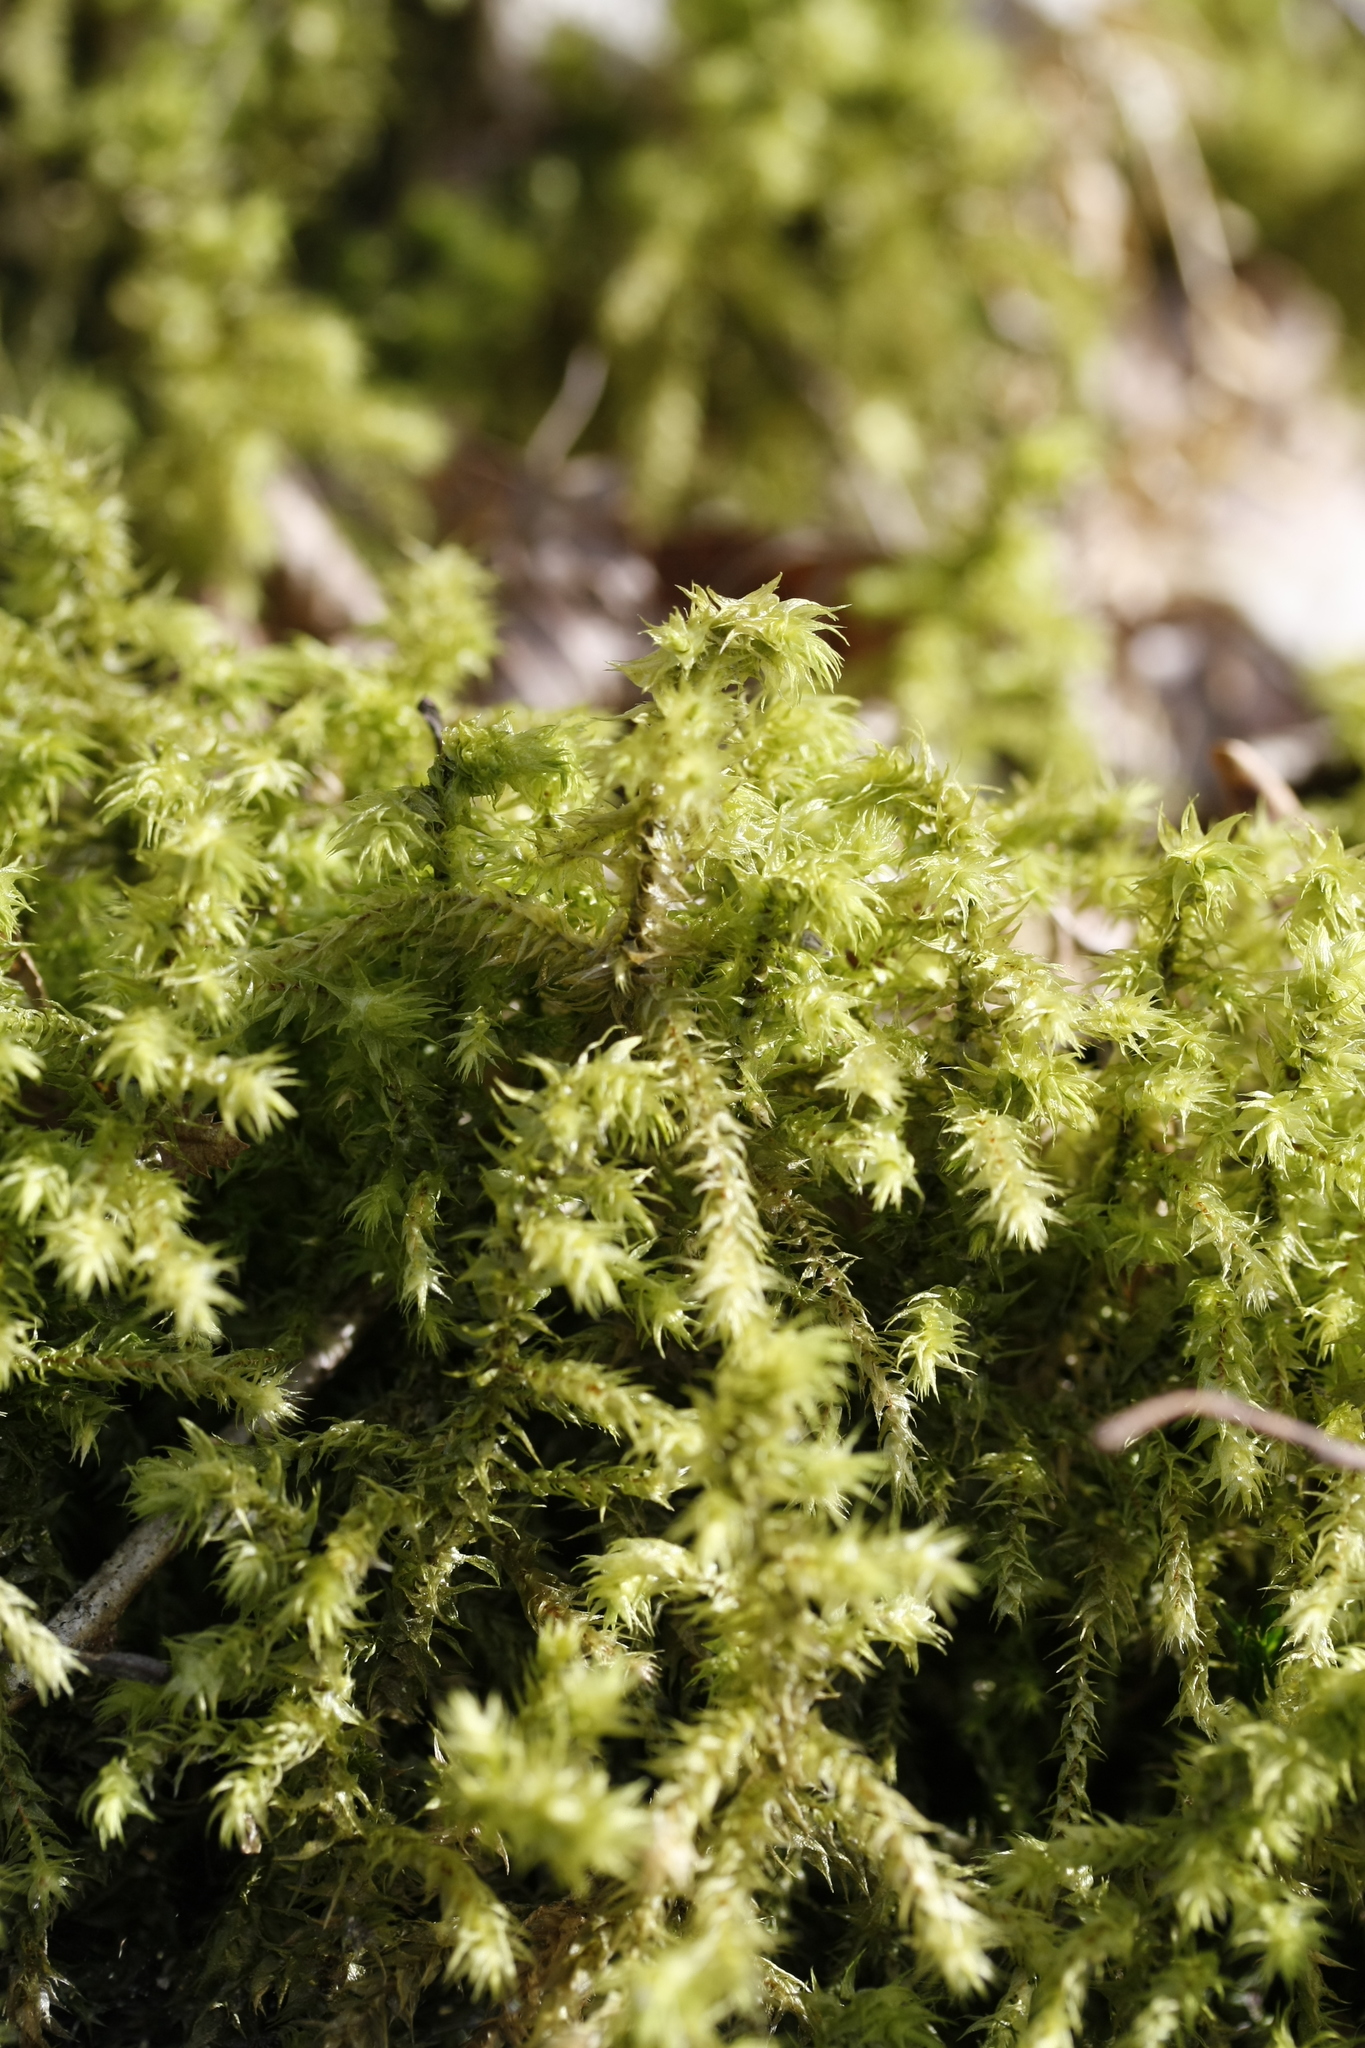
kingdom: Plantae
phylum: Bryophyta
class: Bryopsida
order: Hypnales
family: Hylocomiaceae
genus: Hylocomiadelphus
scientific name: Hylocomiadelphus triquetrus
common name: Rough goose neck moss
